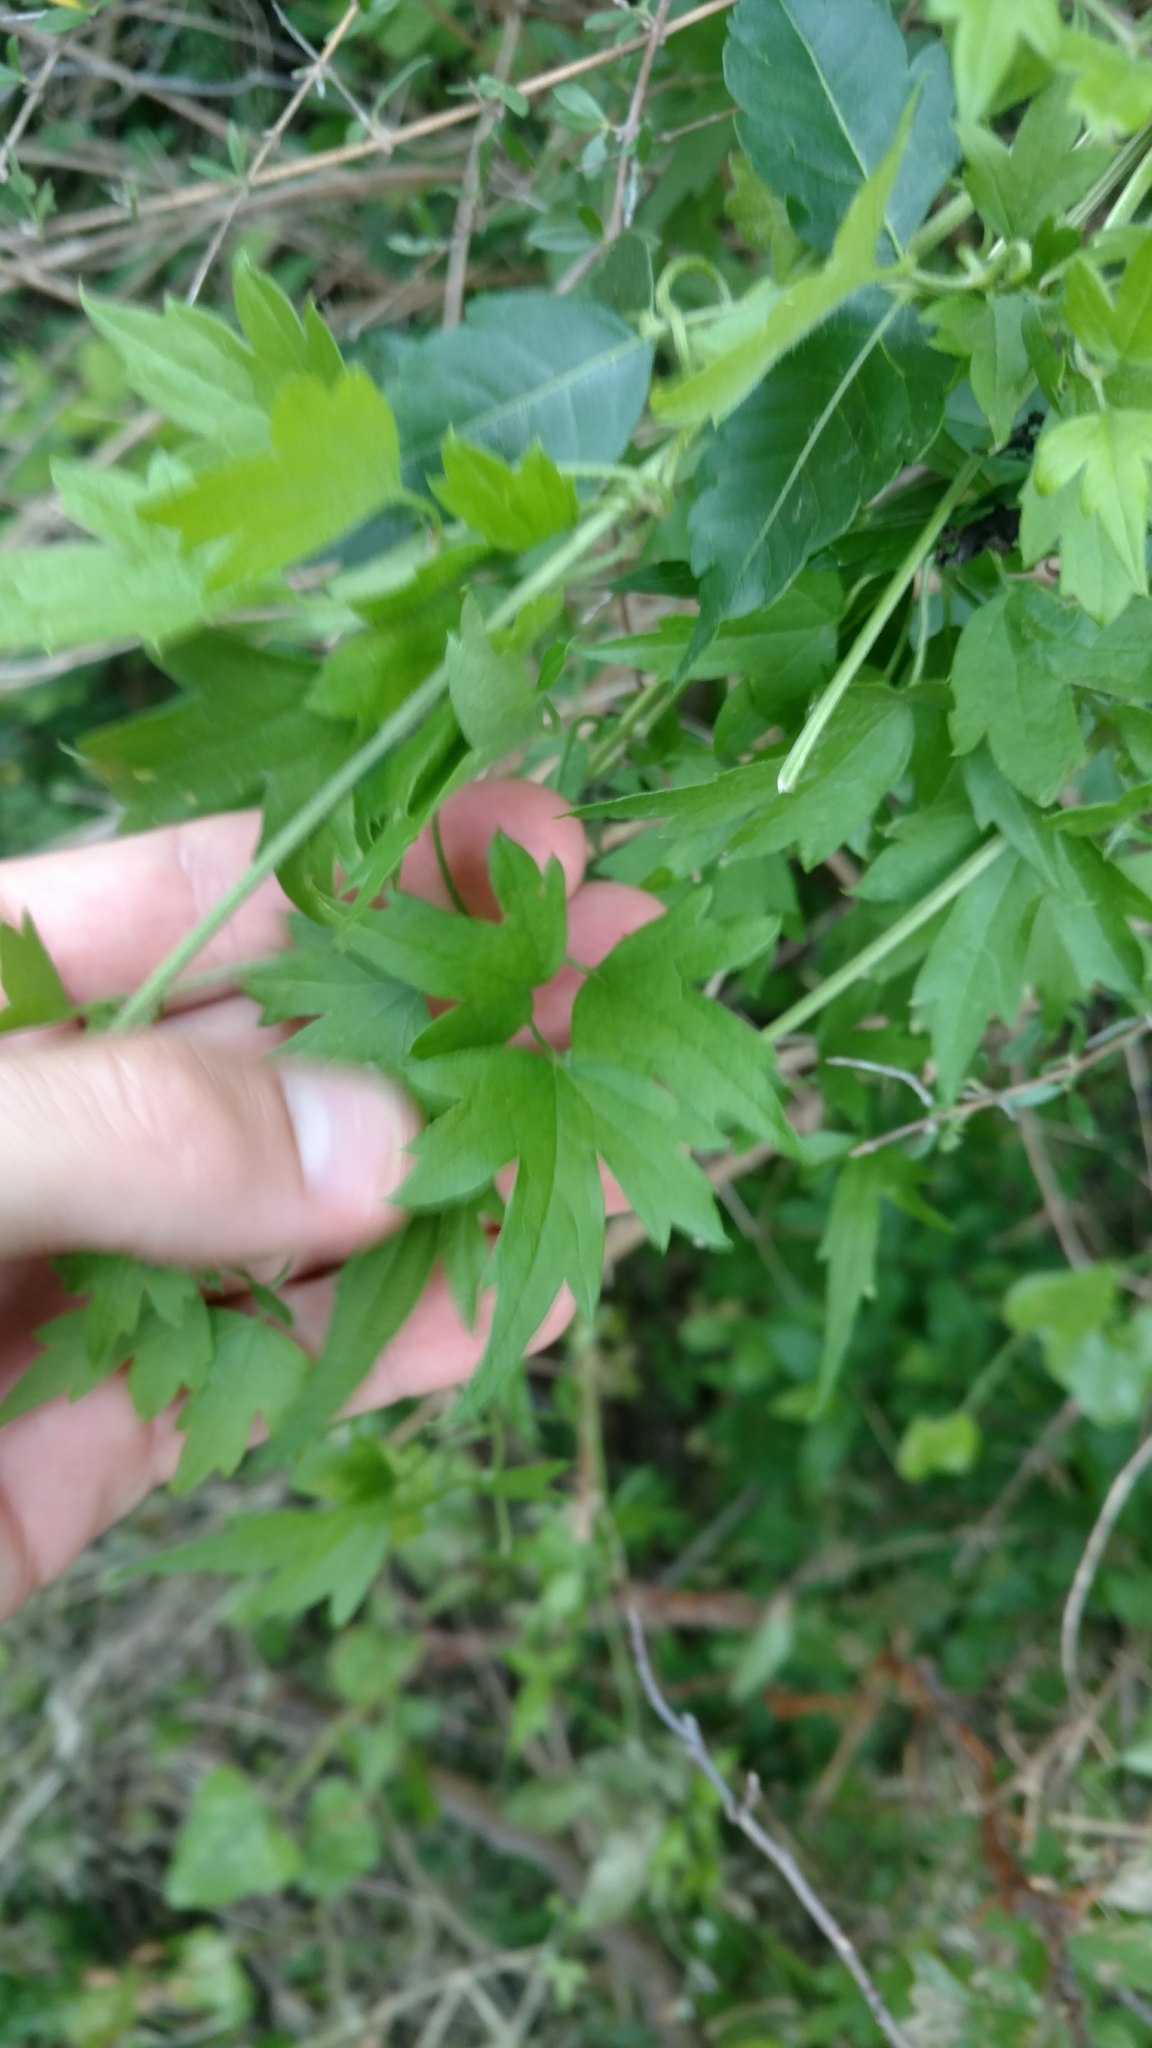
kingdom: Plantae
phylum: Tracheophyta
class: Magnoliopsida
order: Ranunculales
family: Ranunculaceae
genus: Clematis
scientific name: Clematis drummondii
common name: Texas virgin's bower
